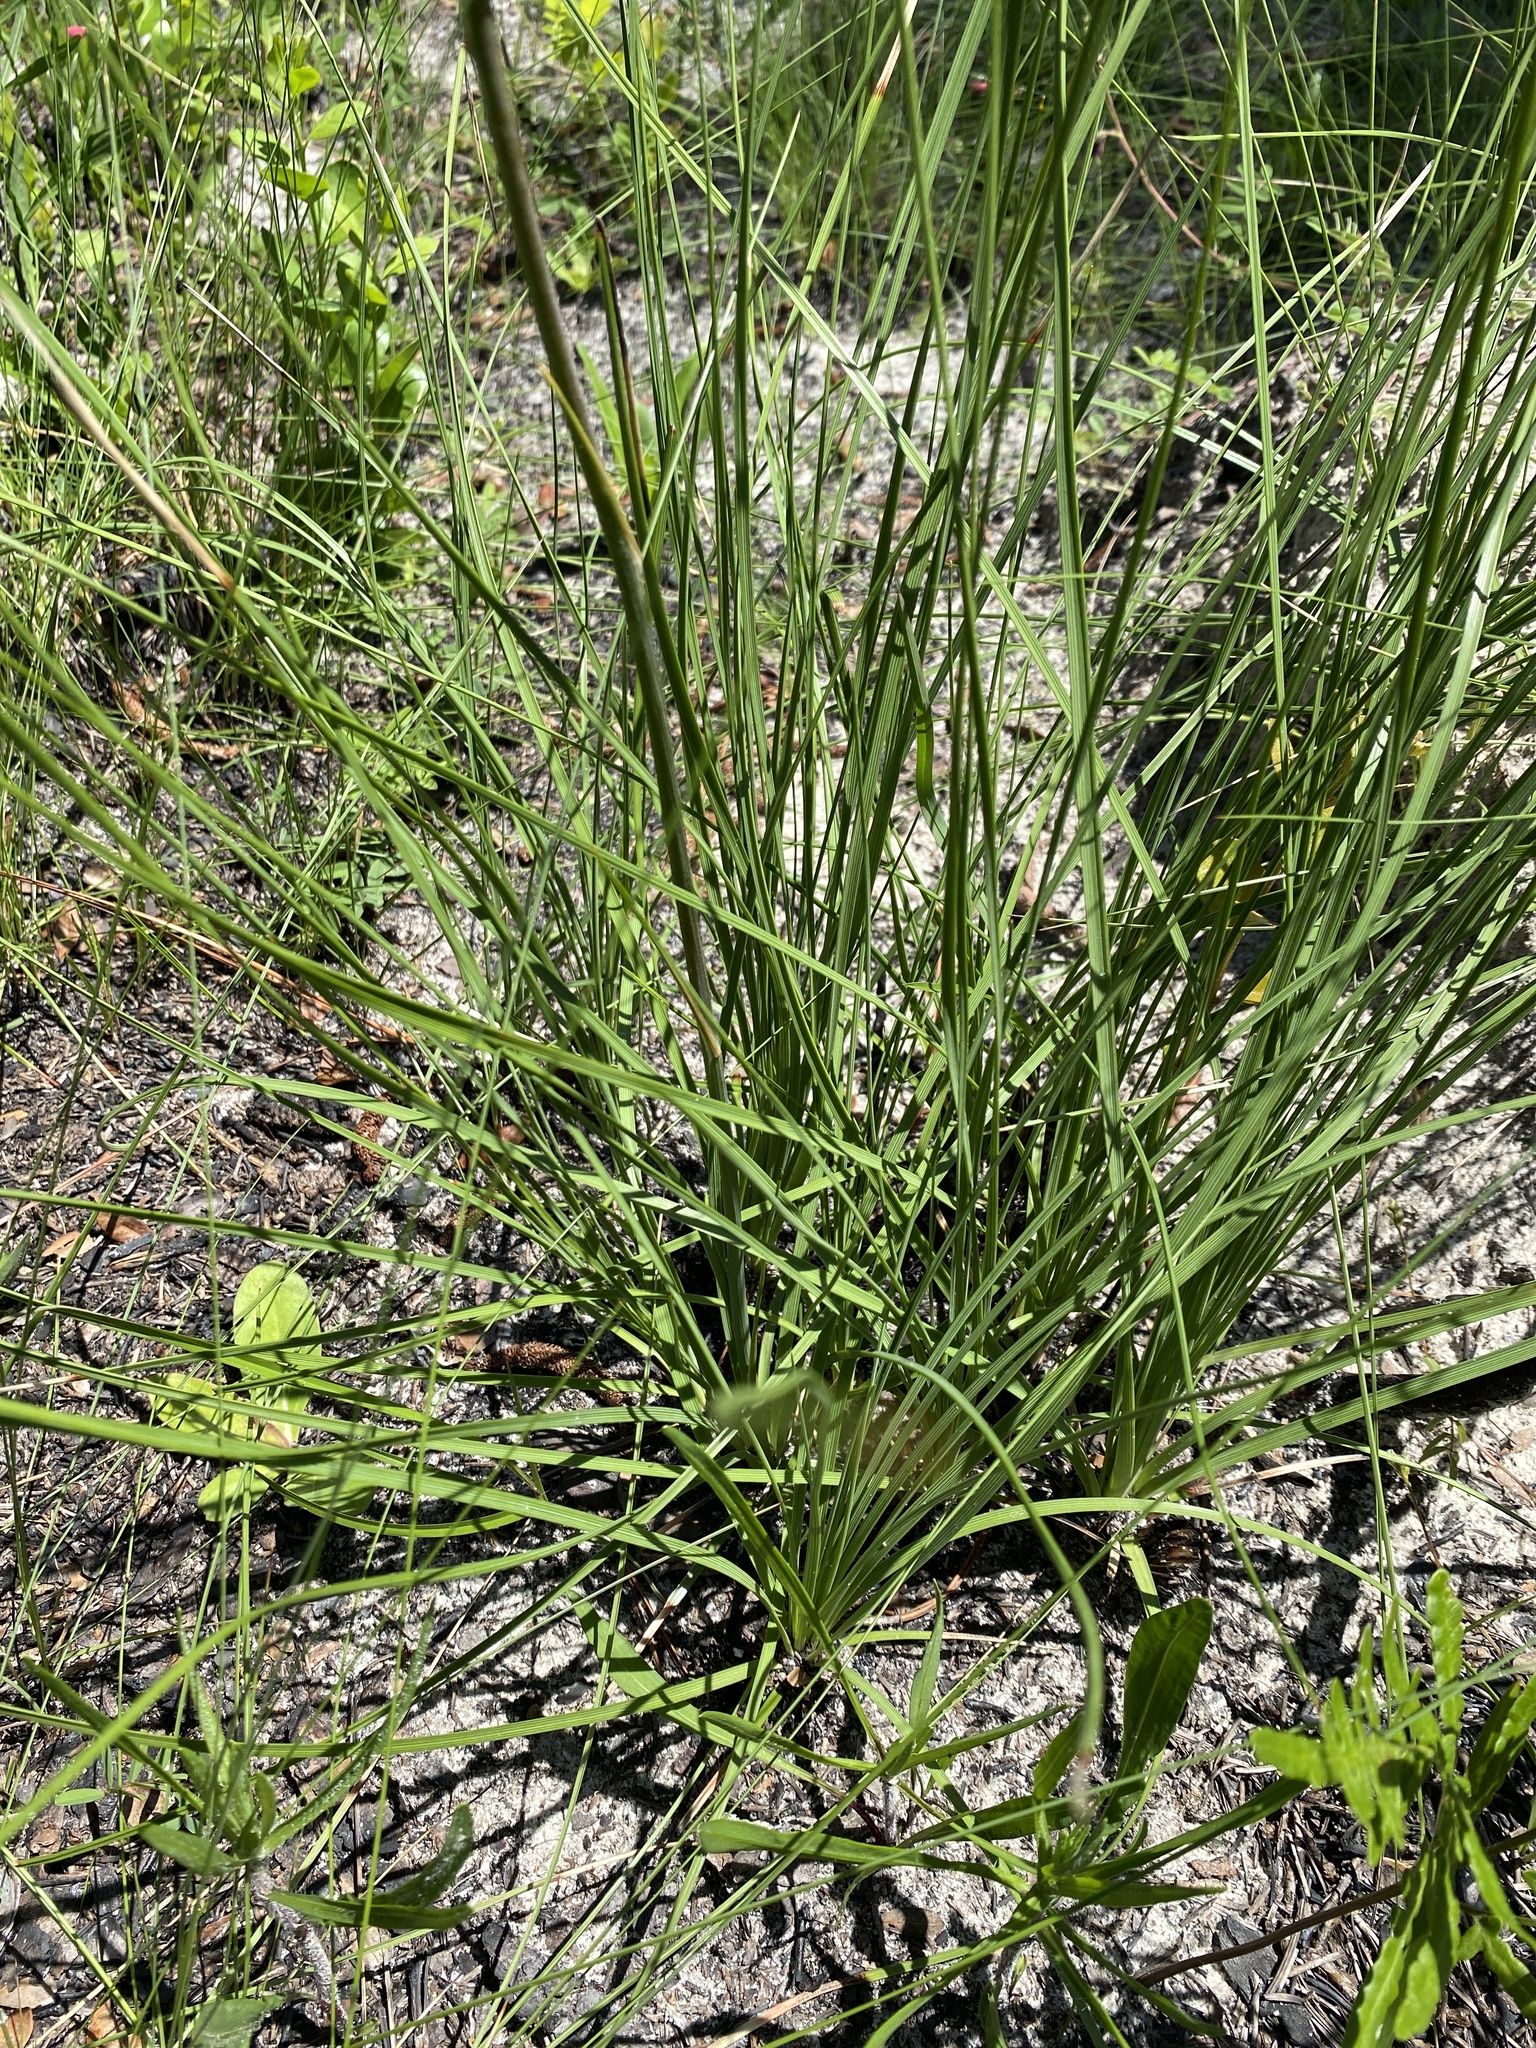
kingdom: Plantae
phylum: Tracheophyta
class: Liliopsida
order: Asparagales
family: Asparagaceae
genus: Nolina
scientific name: Nolina atopocarpa
